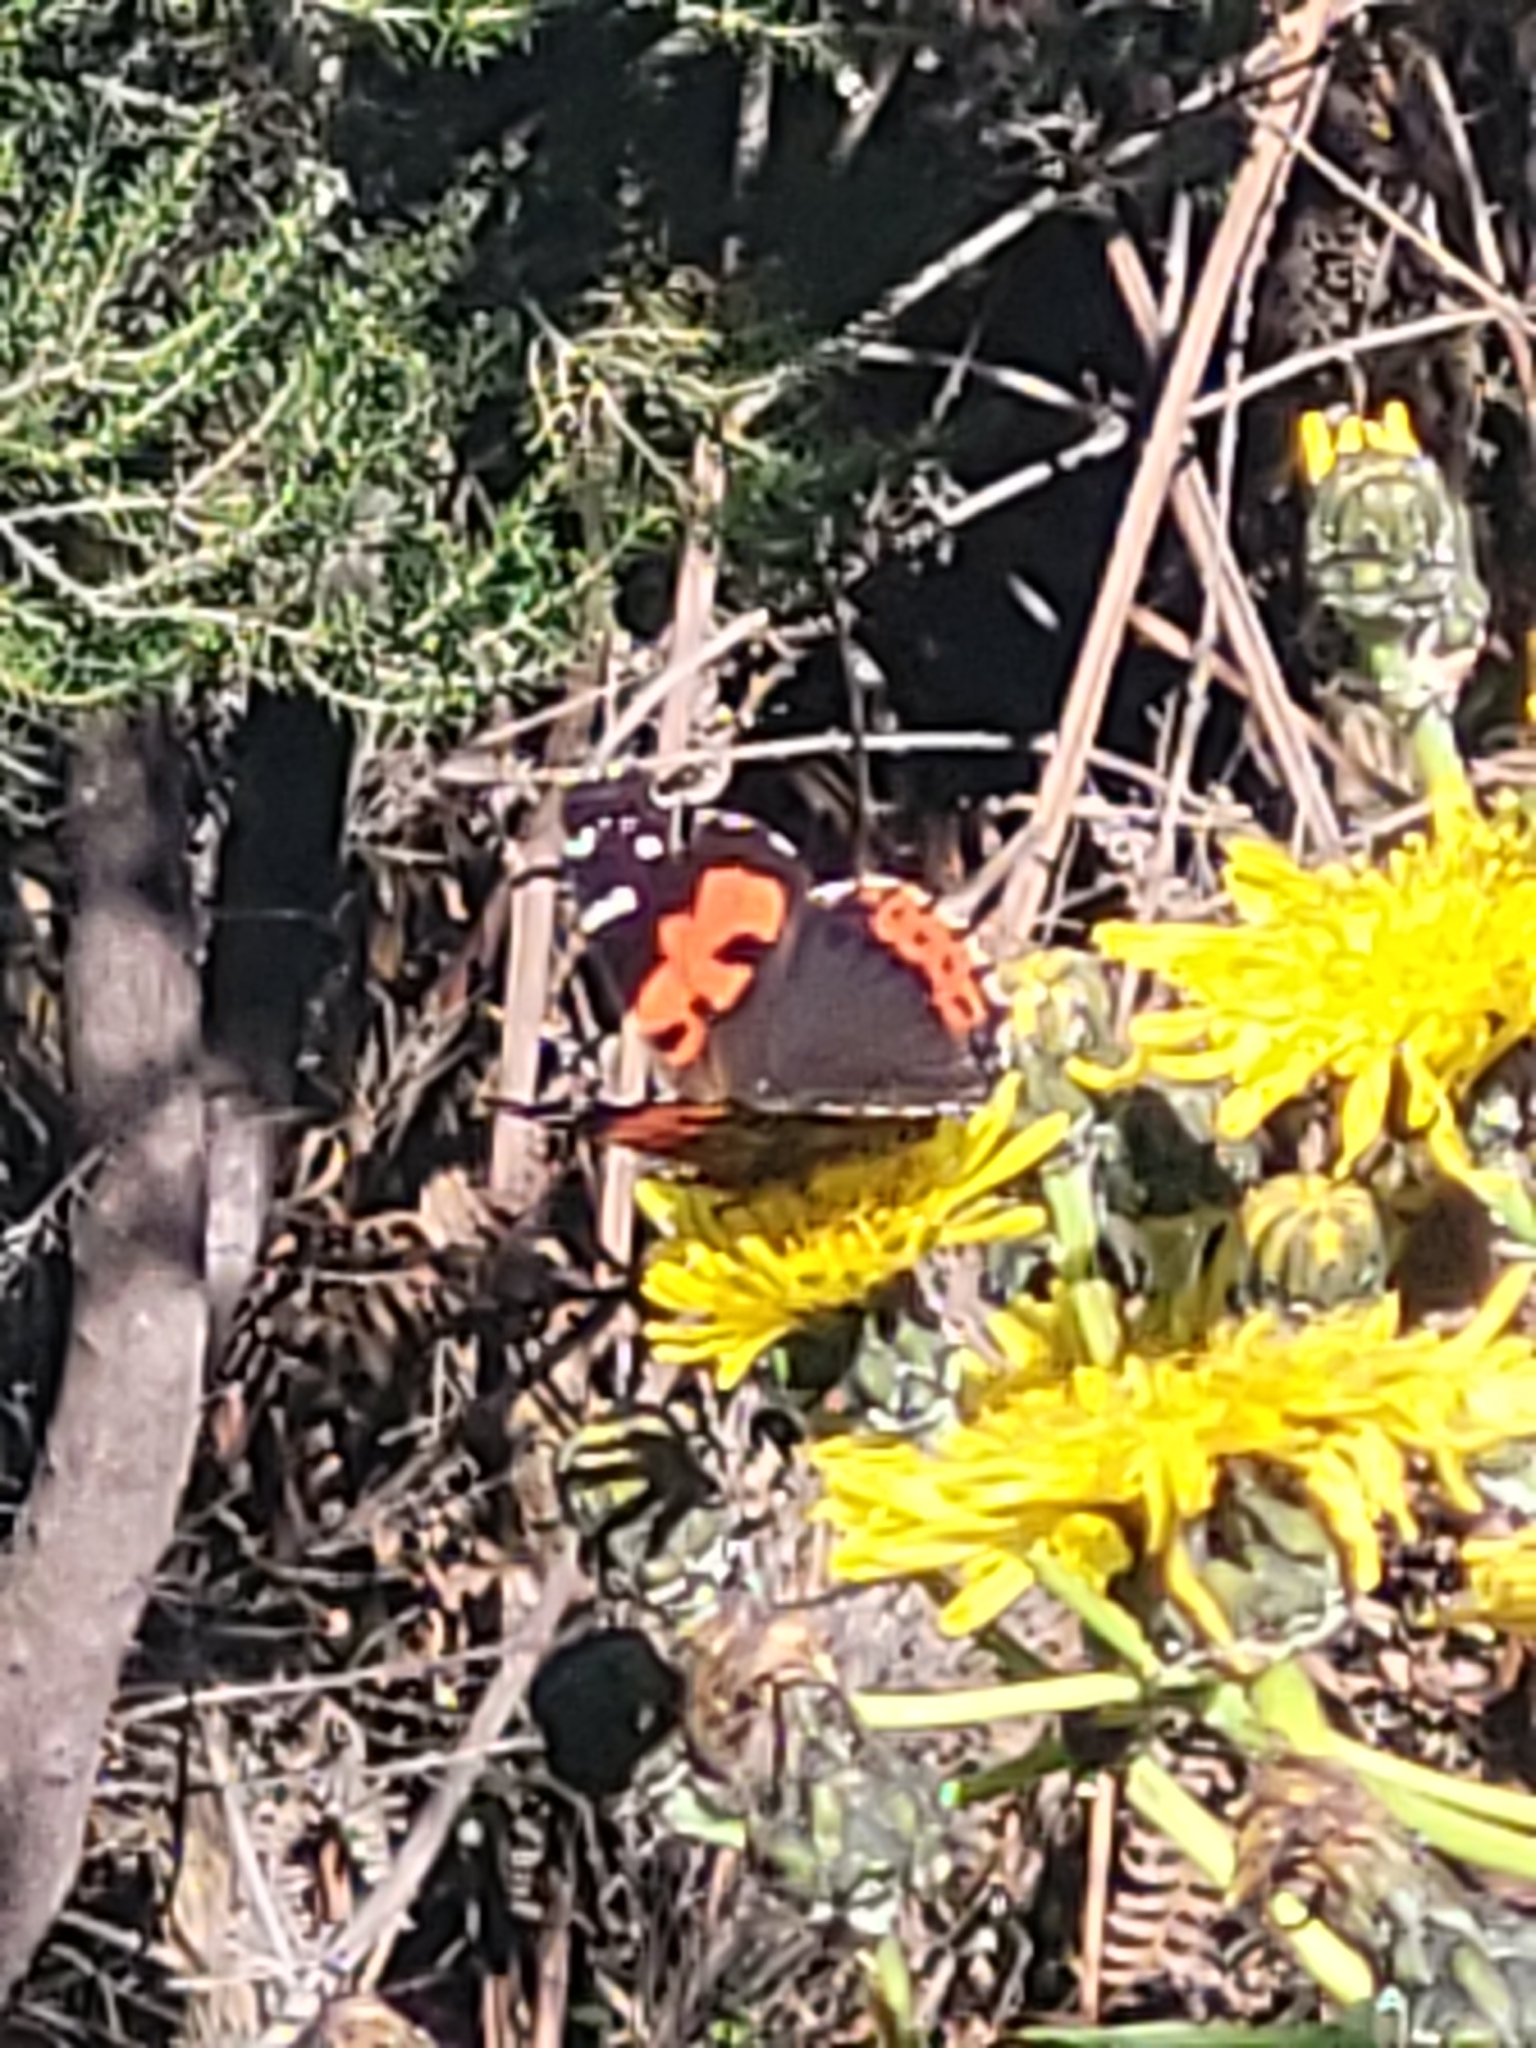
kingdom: Animalia
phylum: Arthropoda
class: Insecta
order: Lepidoptera
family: Nymphalidae
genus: Vanessa
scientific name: Vanessa vulcania
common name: Canary red admiral
